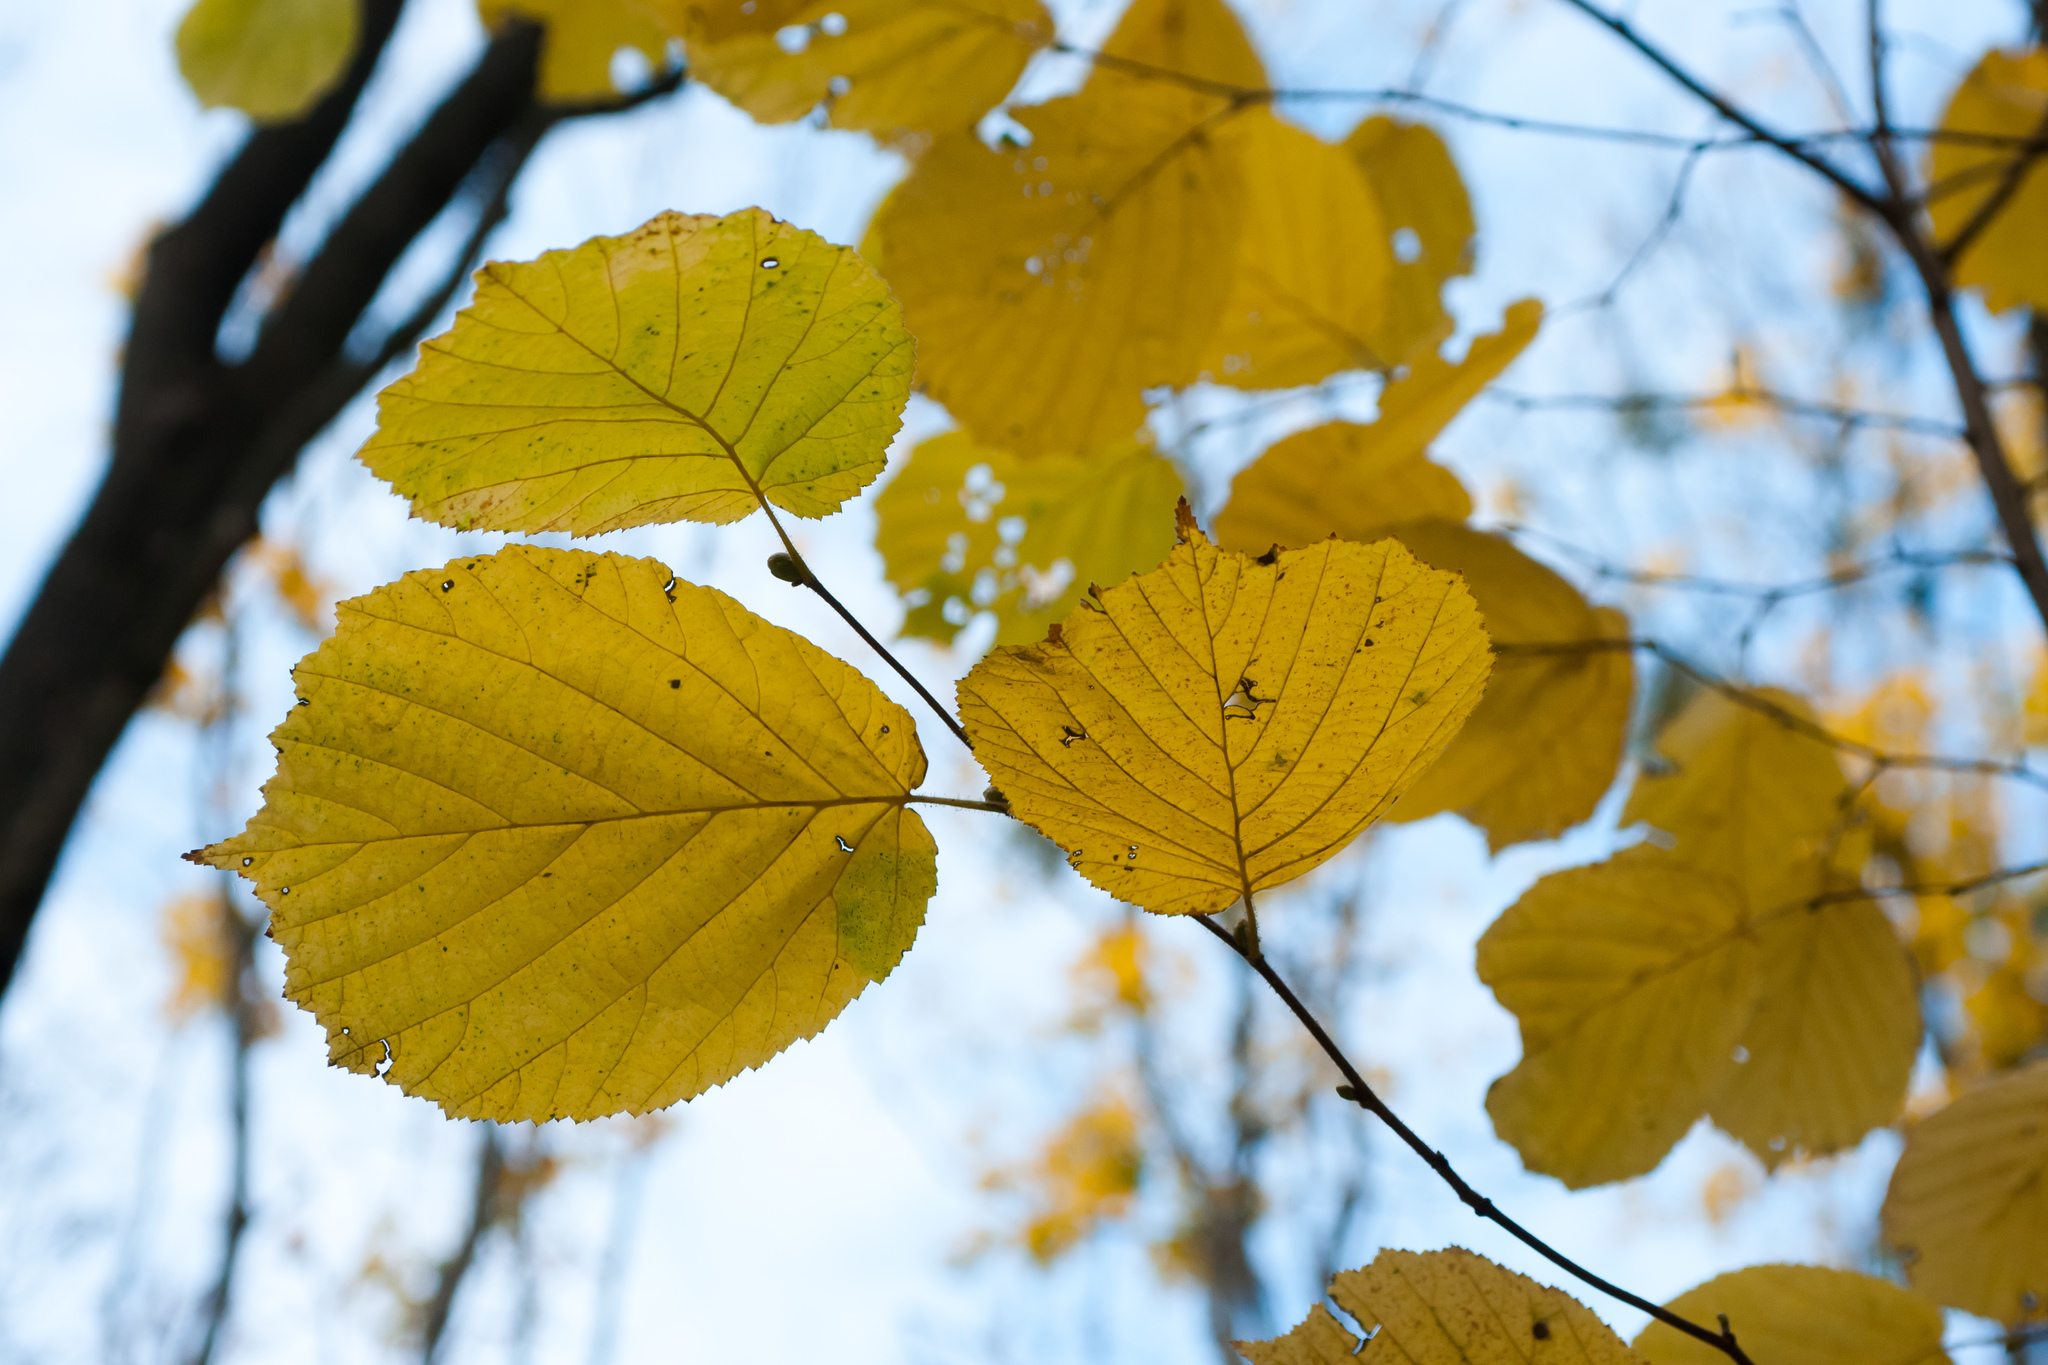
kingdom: Plantae
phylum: Tracheophyta
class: Magnoliopsida
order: Fagales
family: Betulaceae
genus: Corylus
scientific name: Corylus avellana
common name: European hazel
